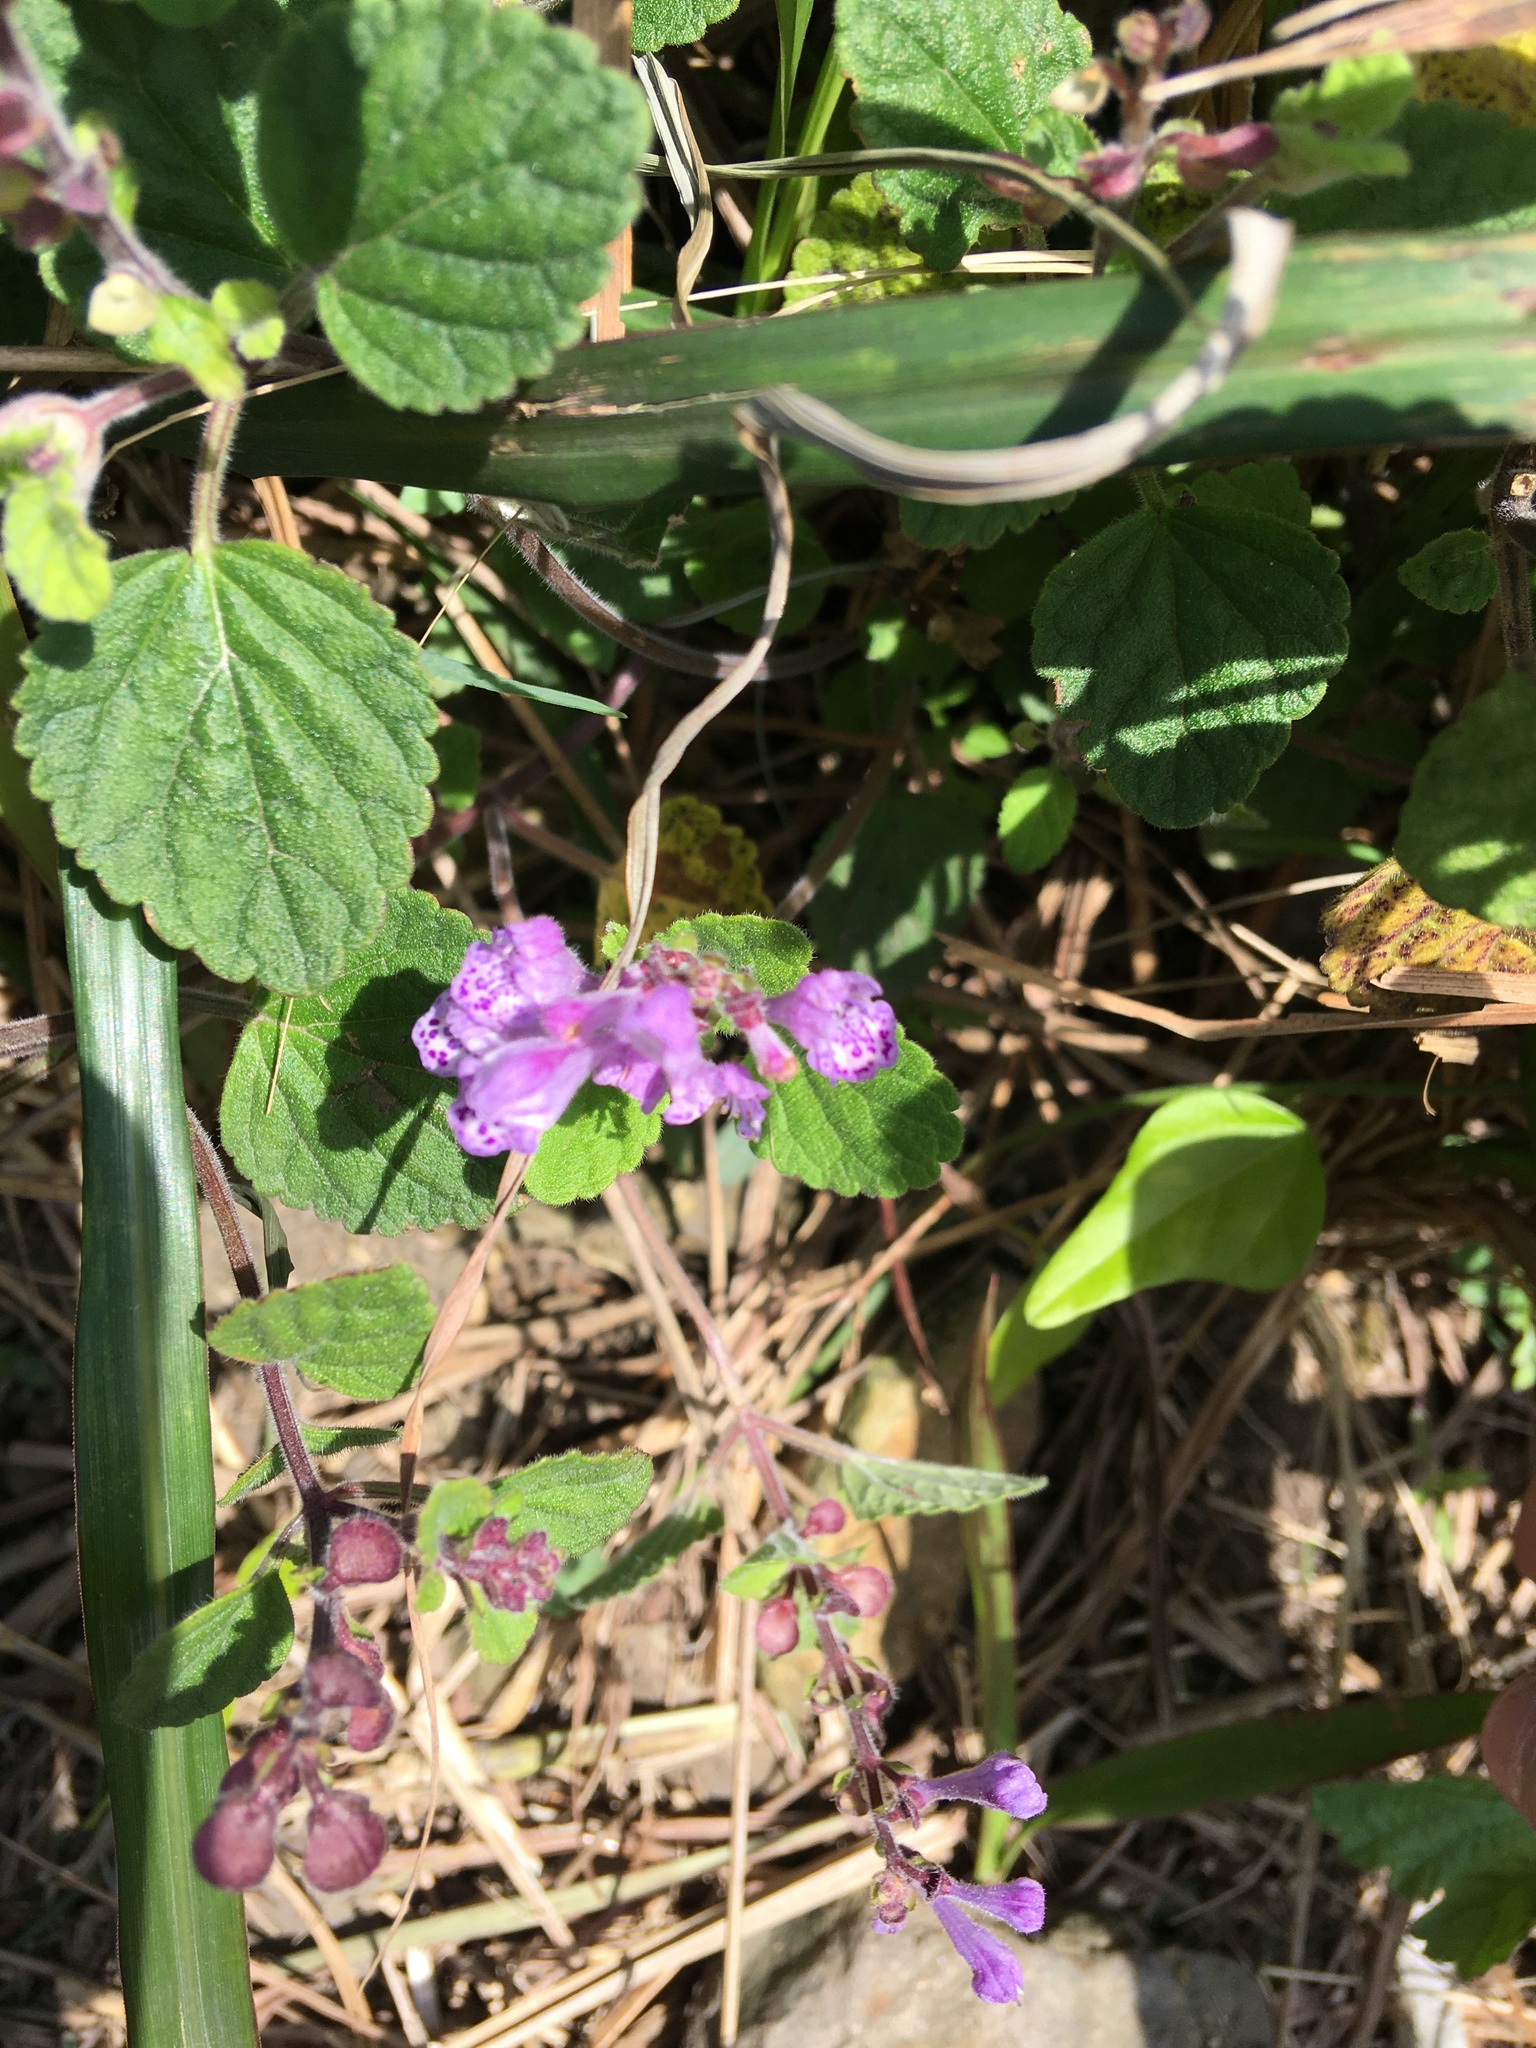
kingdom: Plantae
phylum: Tracheophyta
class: Magnoliopsida
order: Lamiales
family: Lamiaceae
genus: Scutellaria
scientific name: Scutellaria indica
